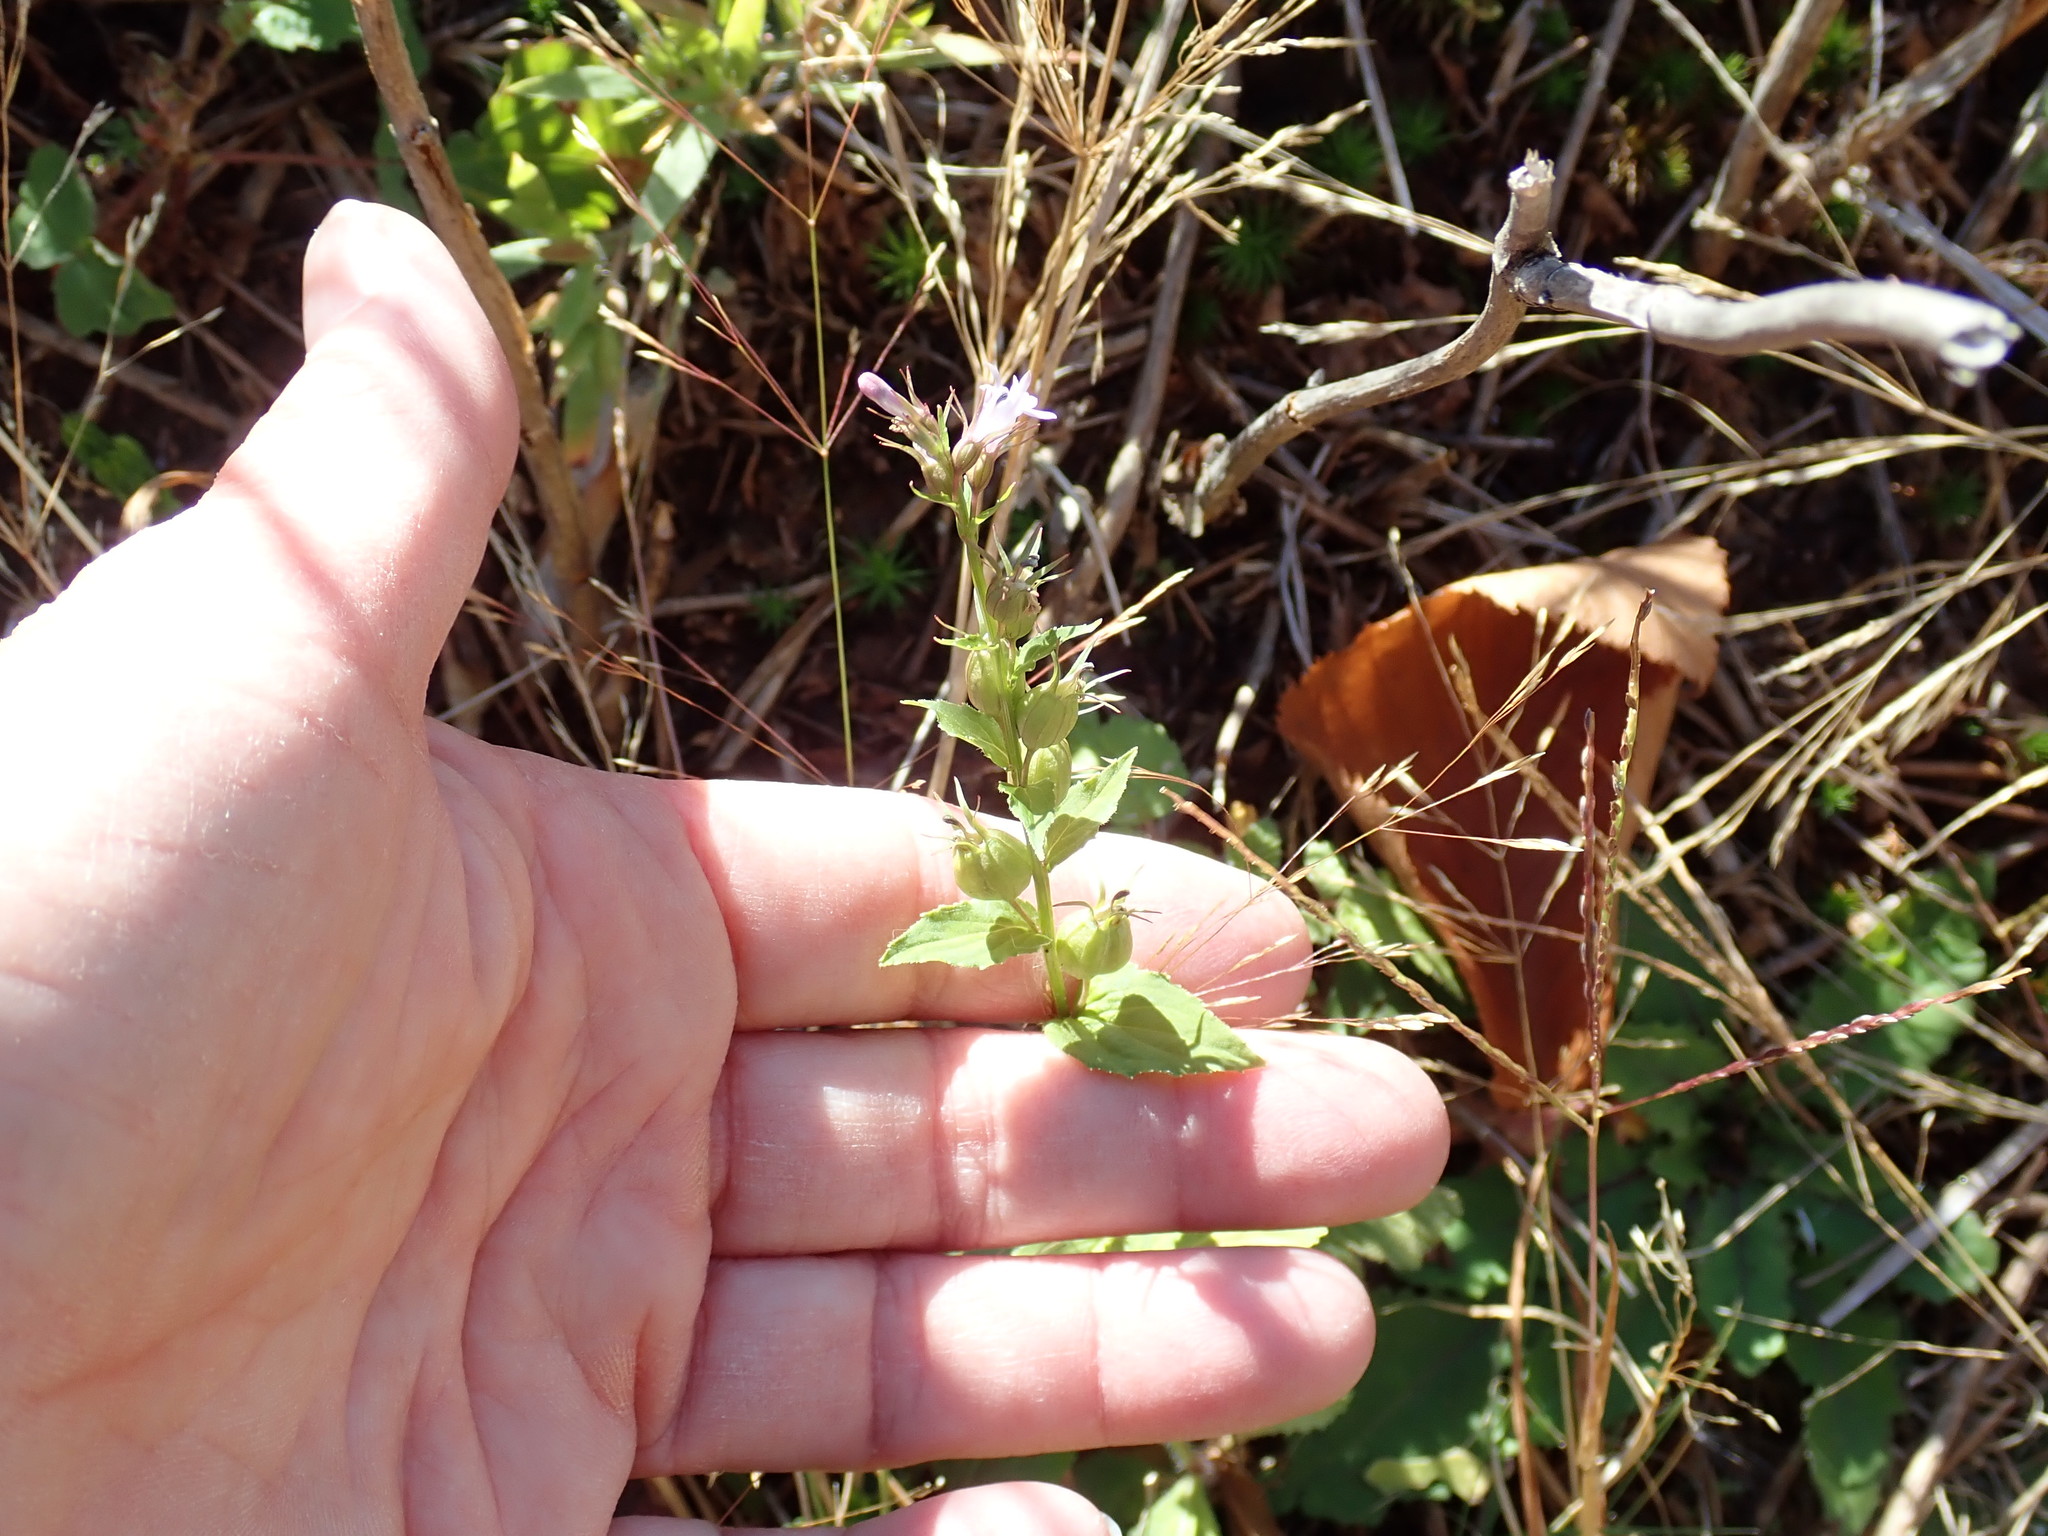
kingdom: Plantae
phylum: Tracheophyta
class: Magnoliopsida
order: Asterales
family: Campanulaceae
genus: Lobelia
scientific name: Lobelia inflata
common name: Indian tobacco
